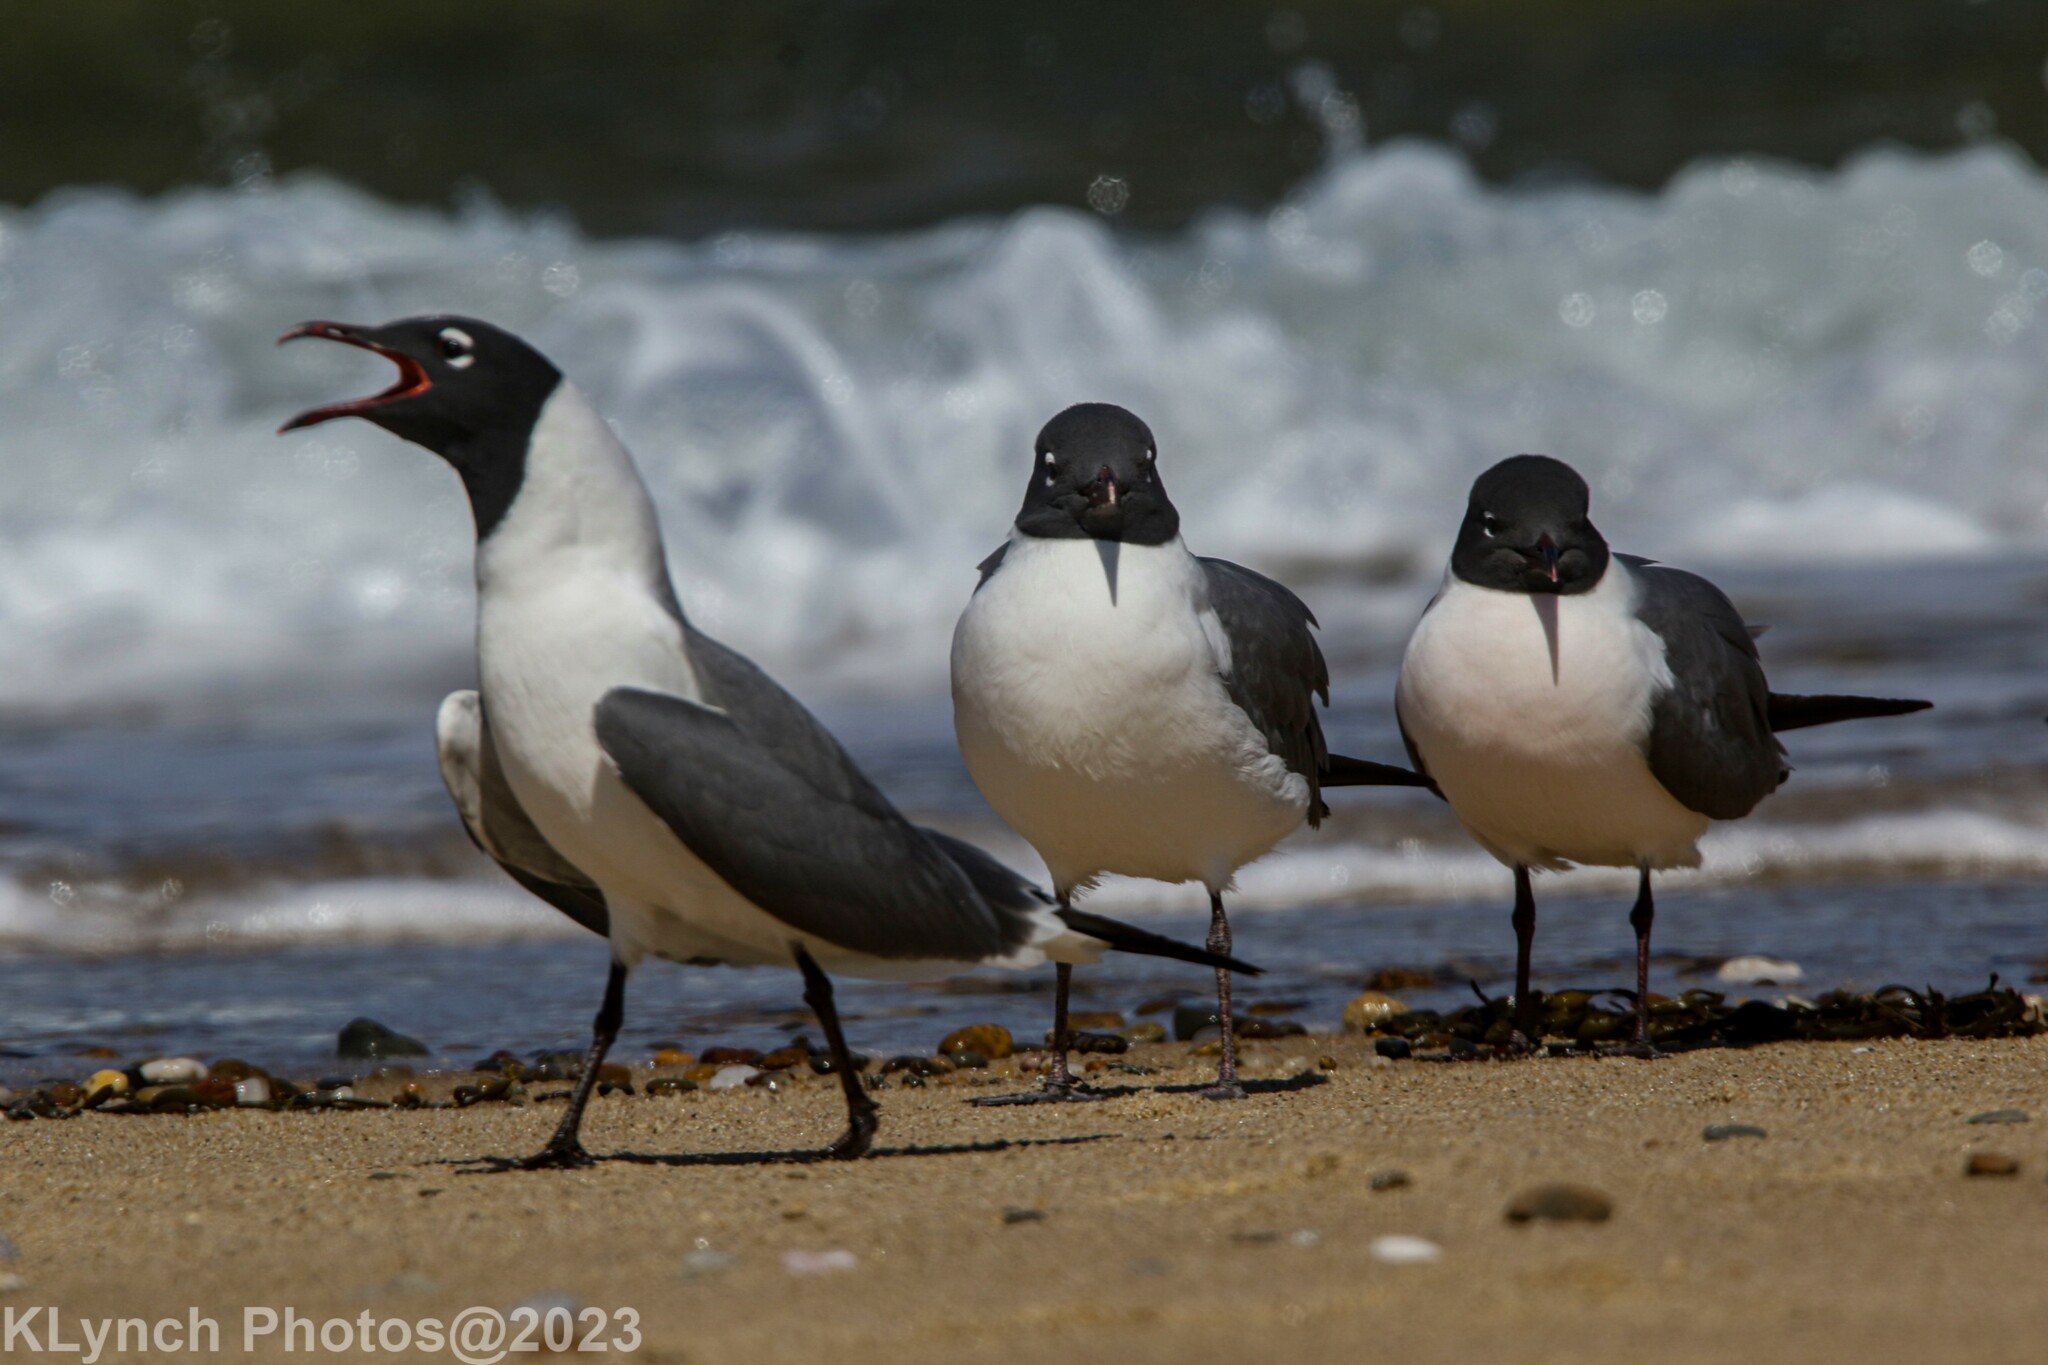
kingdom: Animalia
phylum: Chordata
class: Aves
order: Charadriiformes
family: Laridae
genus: Leucophaeus
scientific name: Leucophaeus atricilla
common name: Laughing gull
